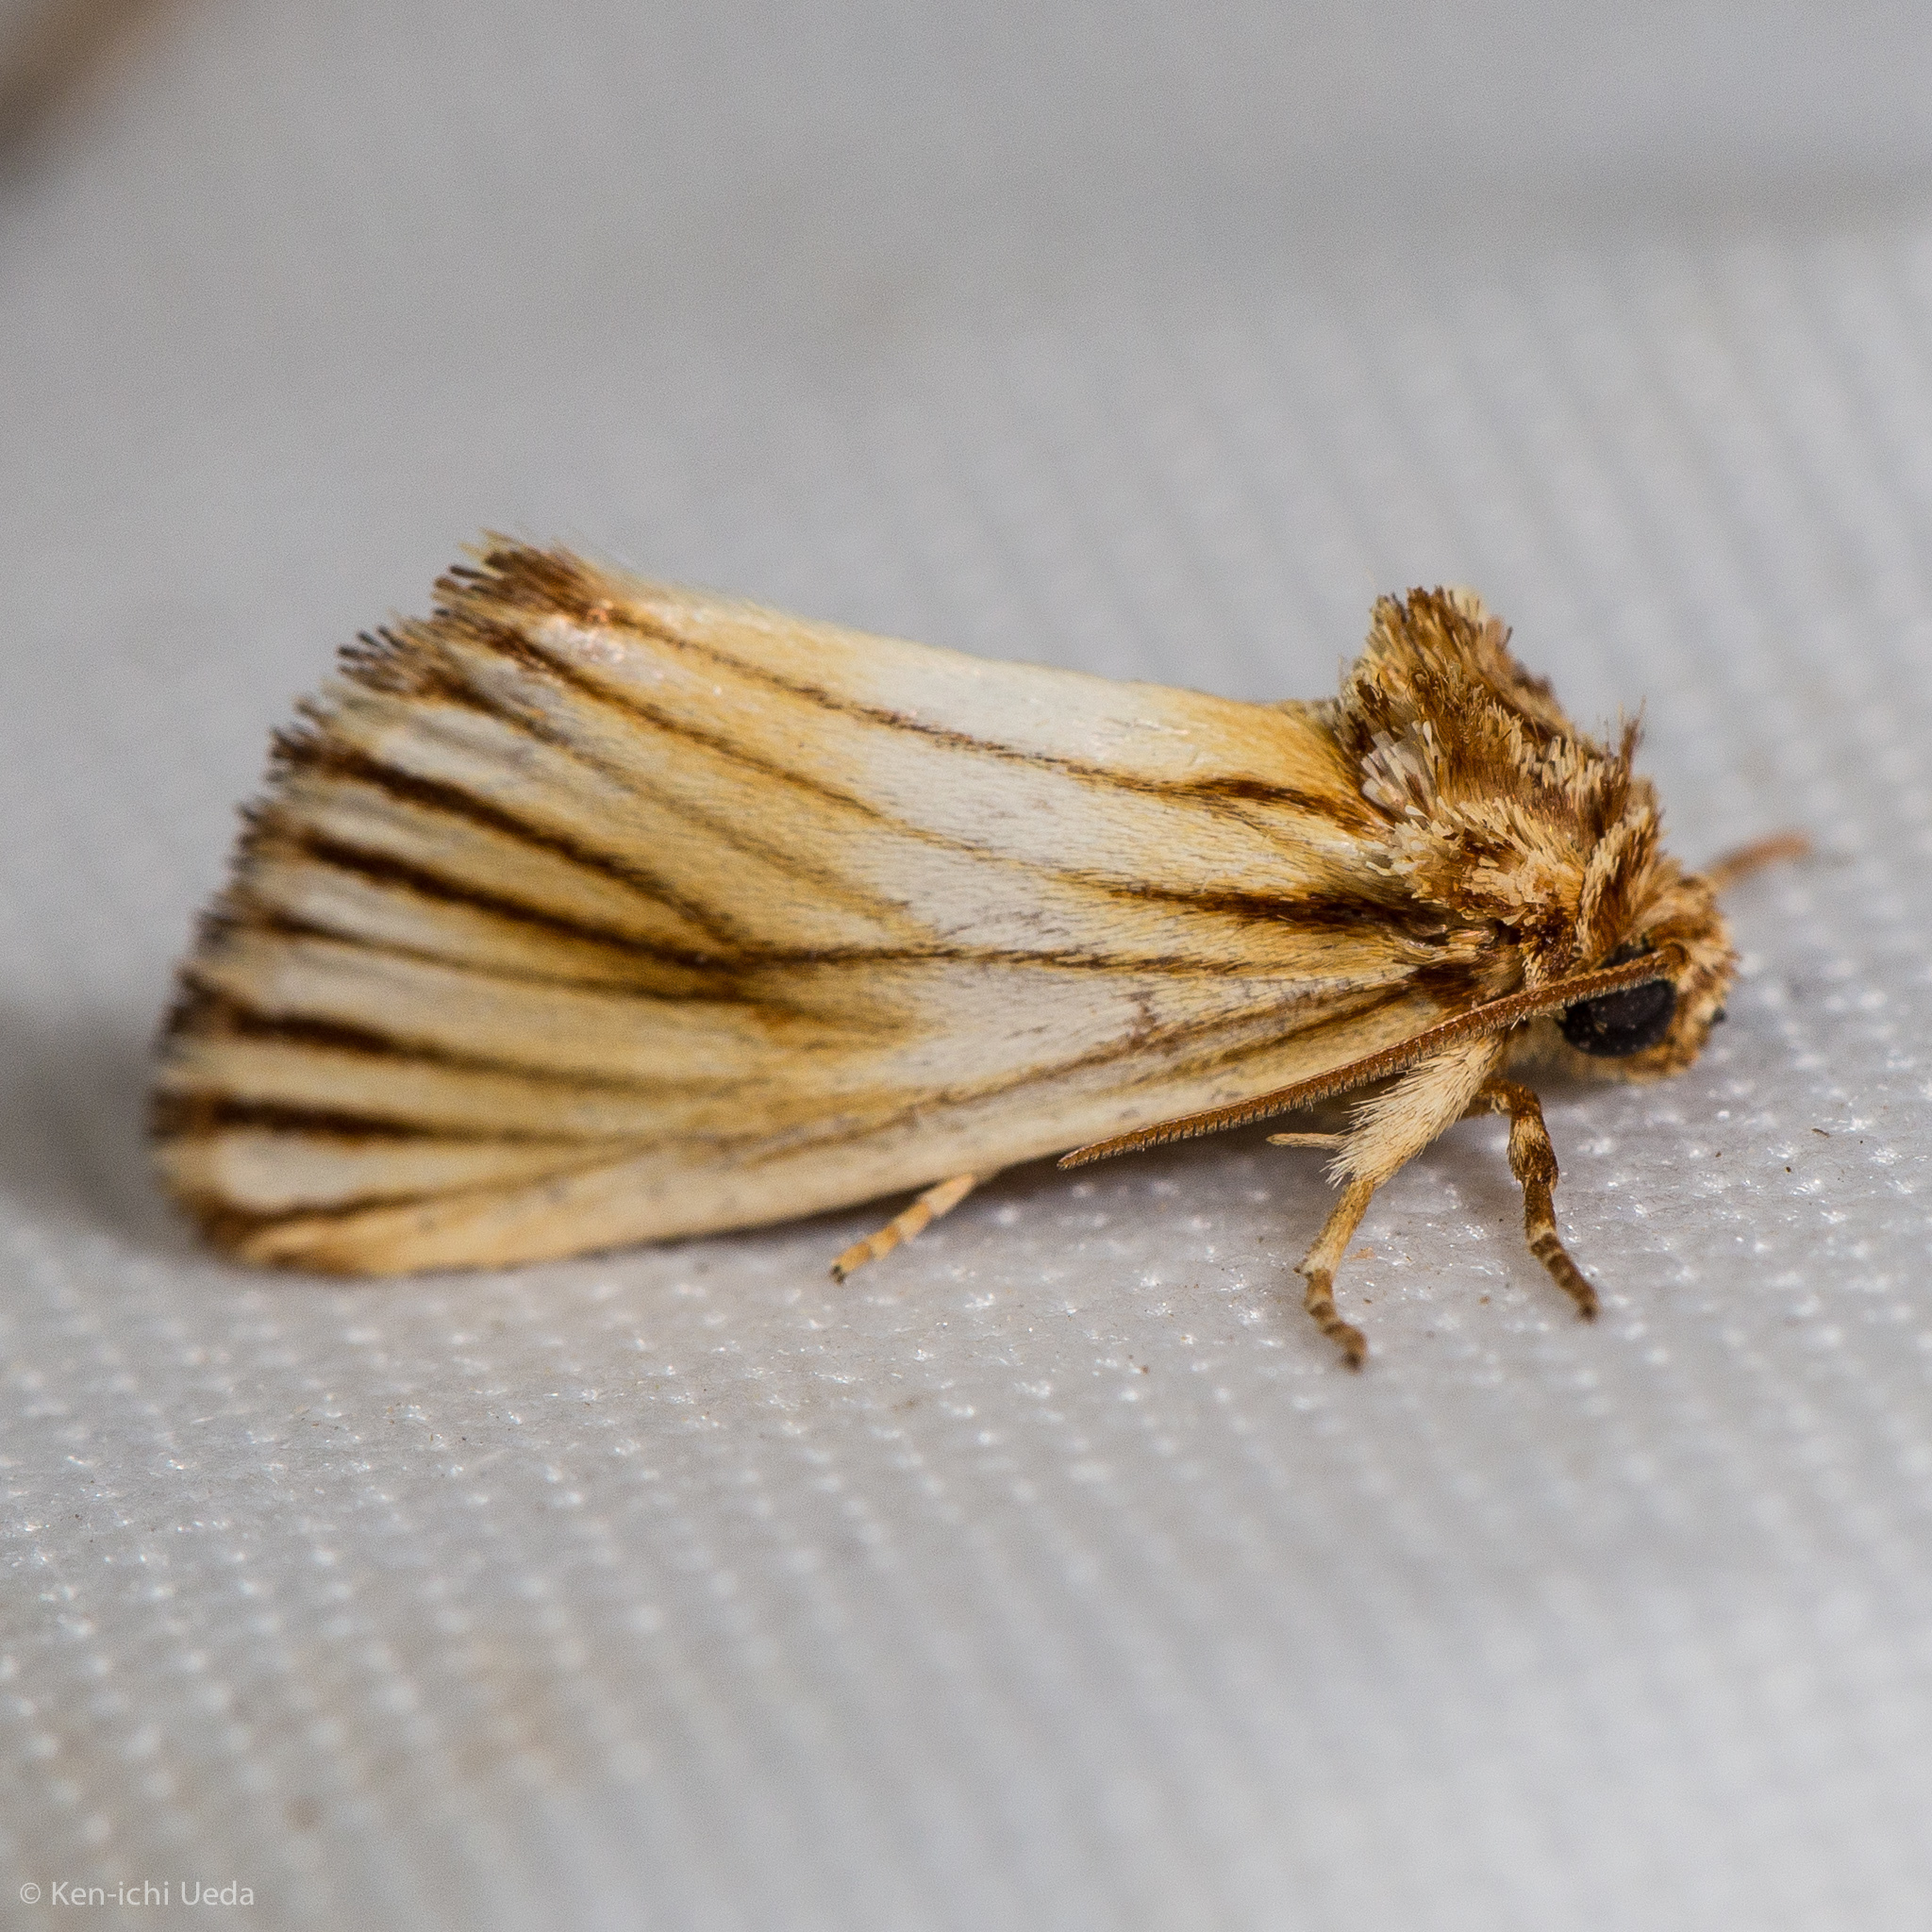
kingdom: Animalia
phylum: Arthropoda
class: Insecta
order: Lepidoptera
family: Noctuidae
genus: Antaplaga
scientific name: Antaplaga discistriga
